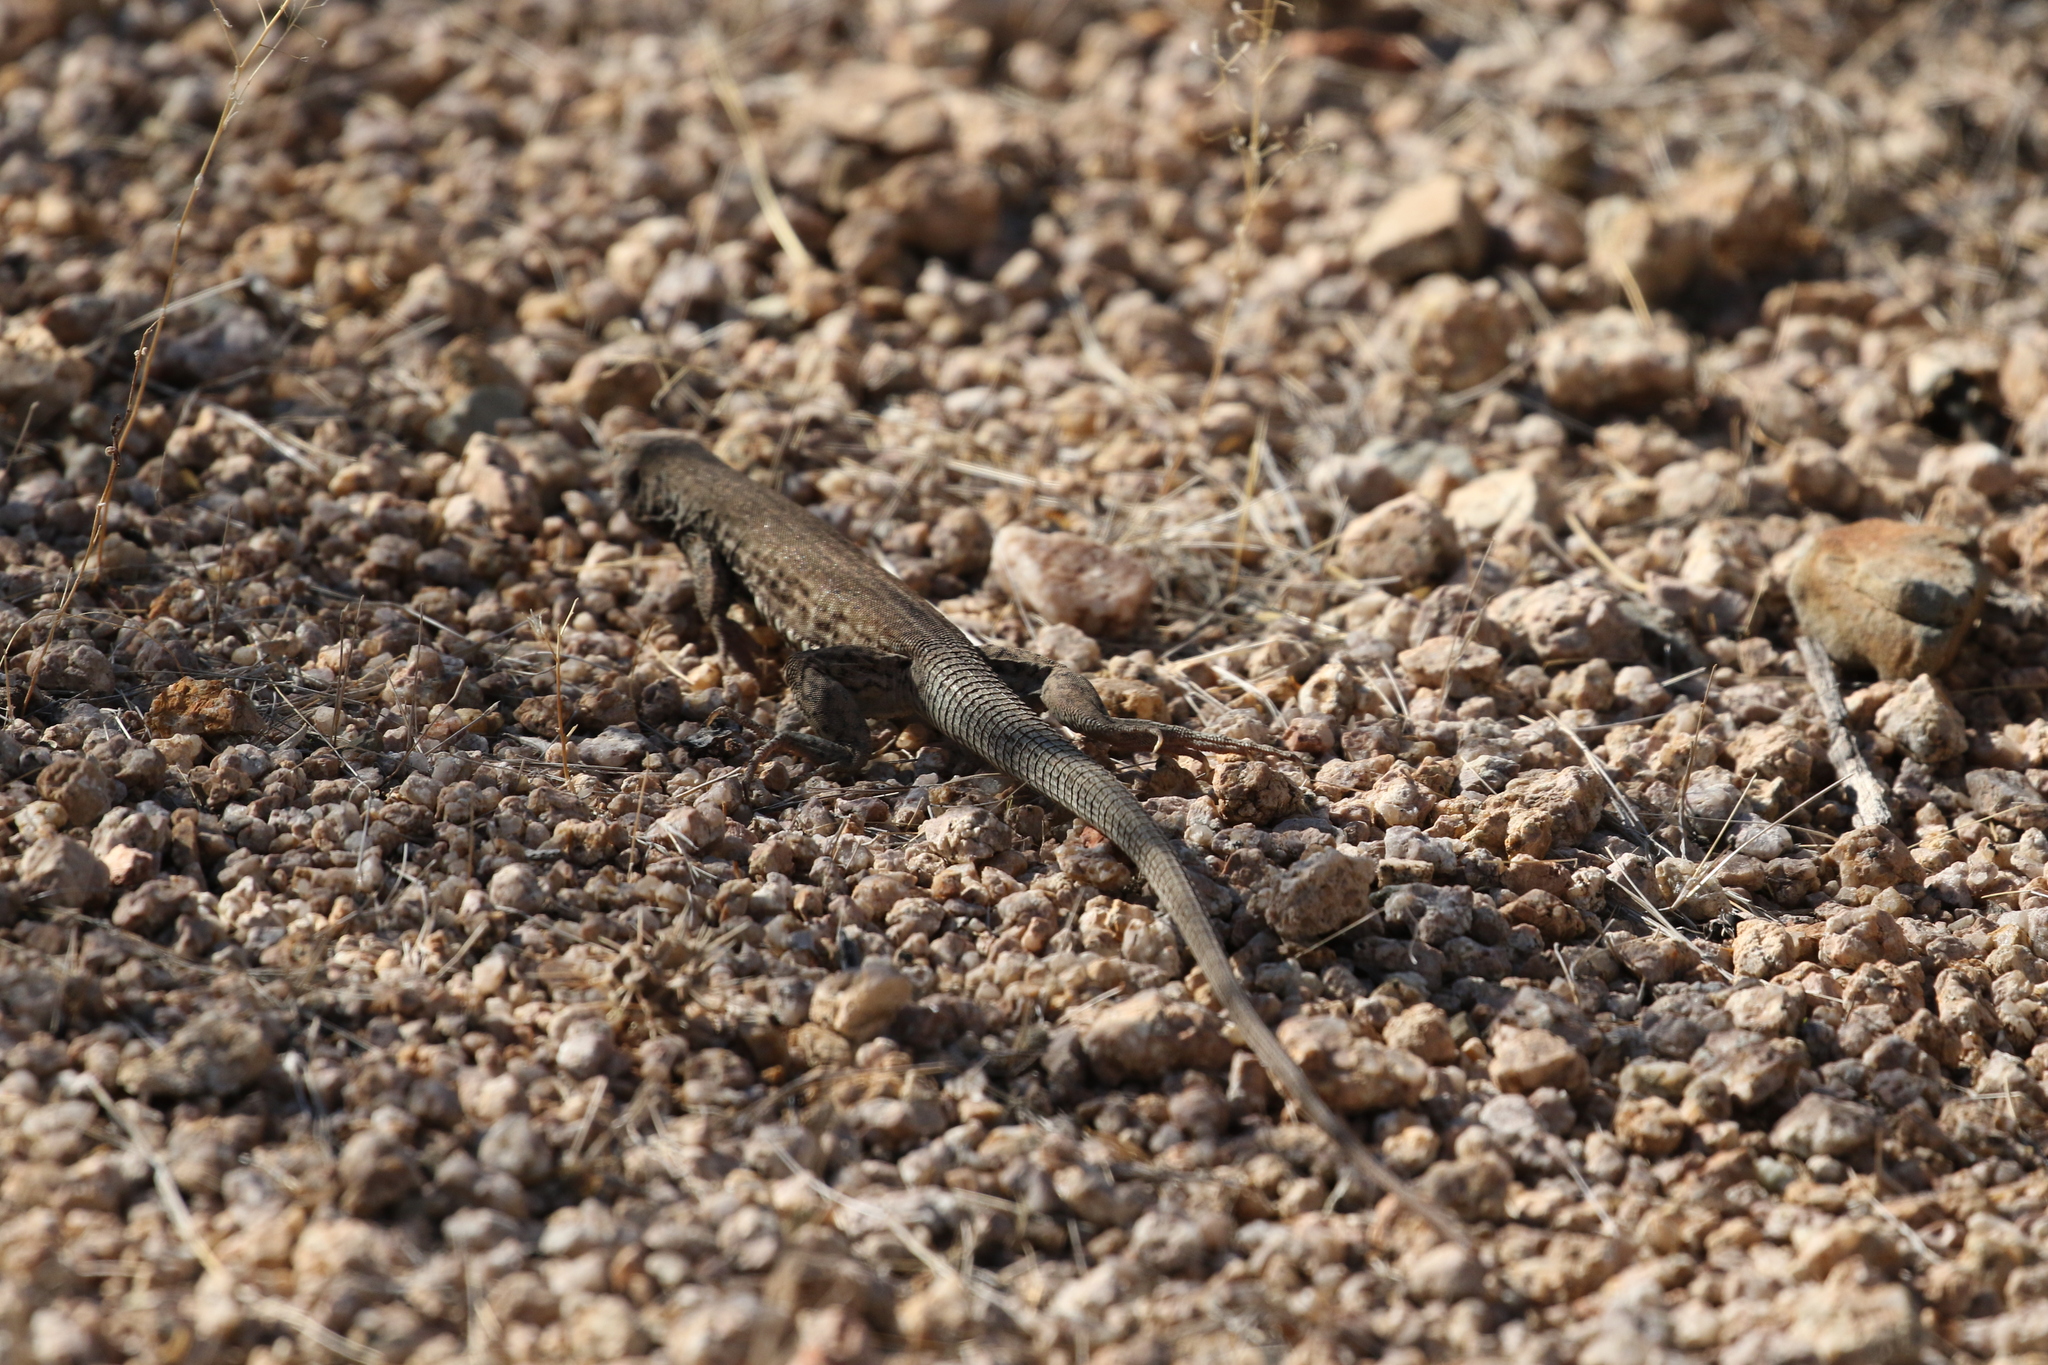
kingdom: Animalia
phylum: Chordata
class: Squamata
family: Teiidae
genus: Aspidoscelis
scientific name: Aspidoscelis tigris
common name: Tiger whiptail
